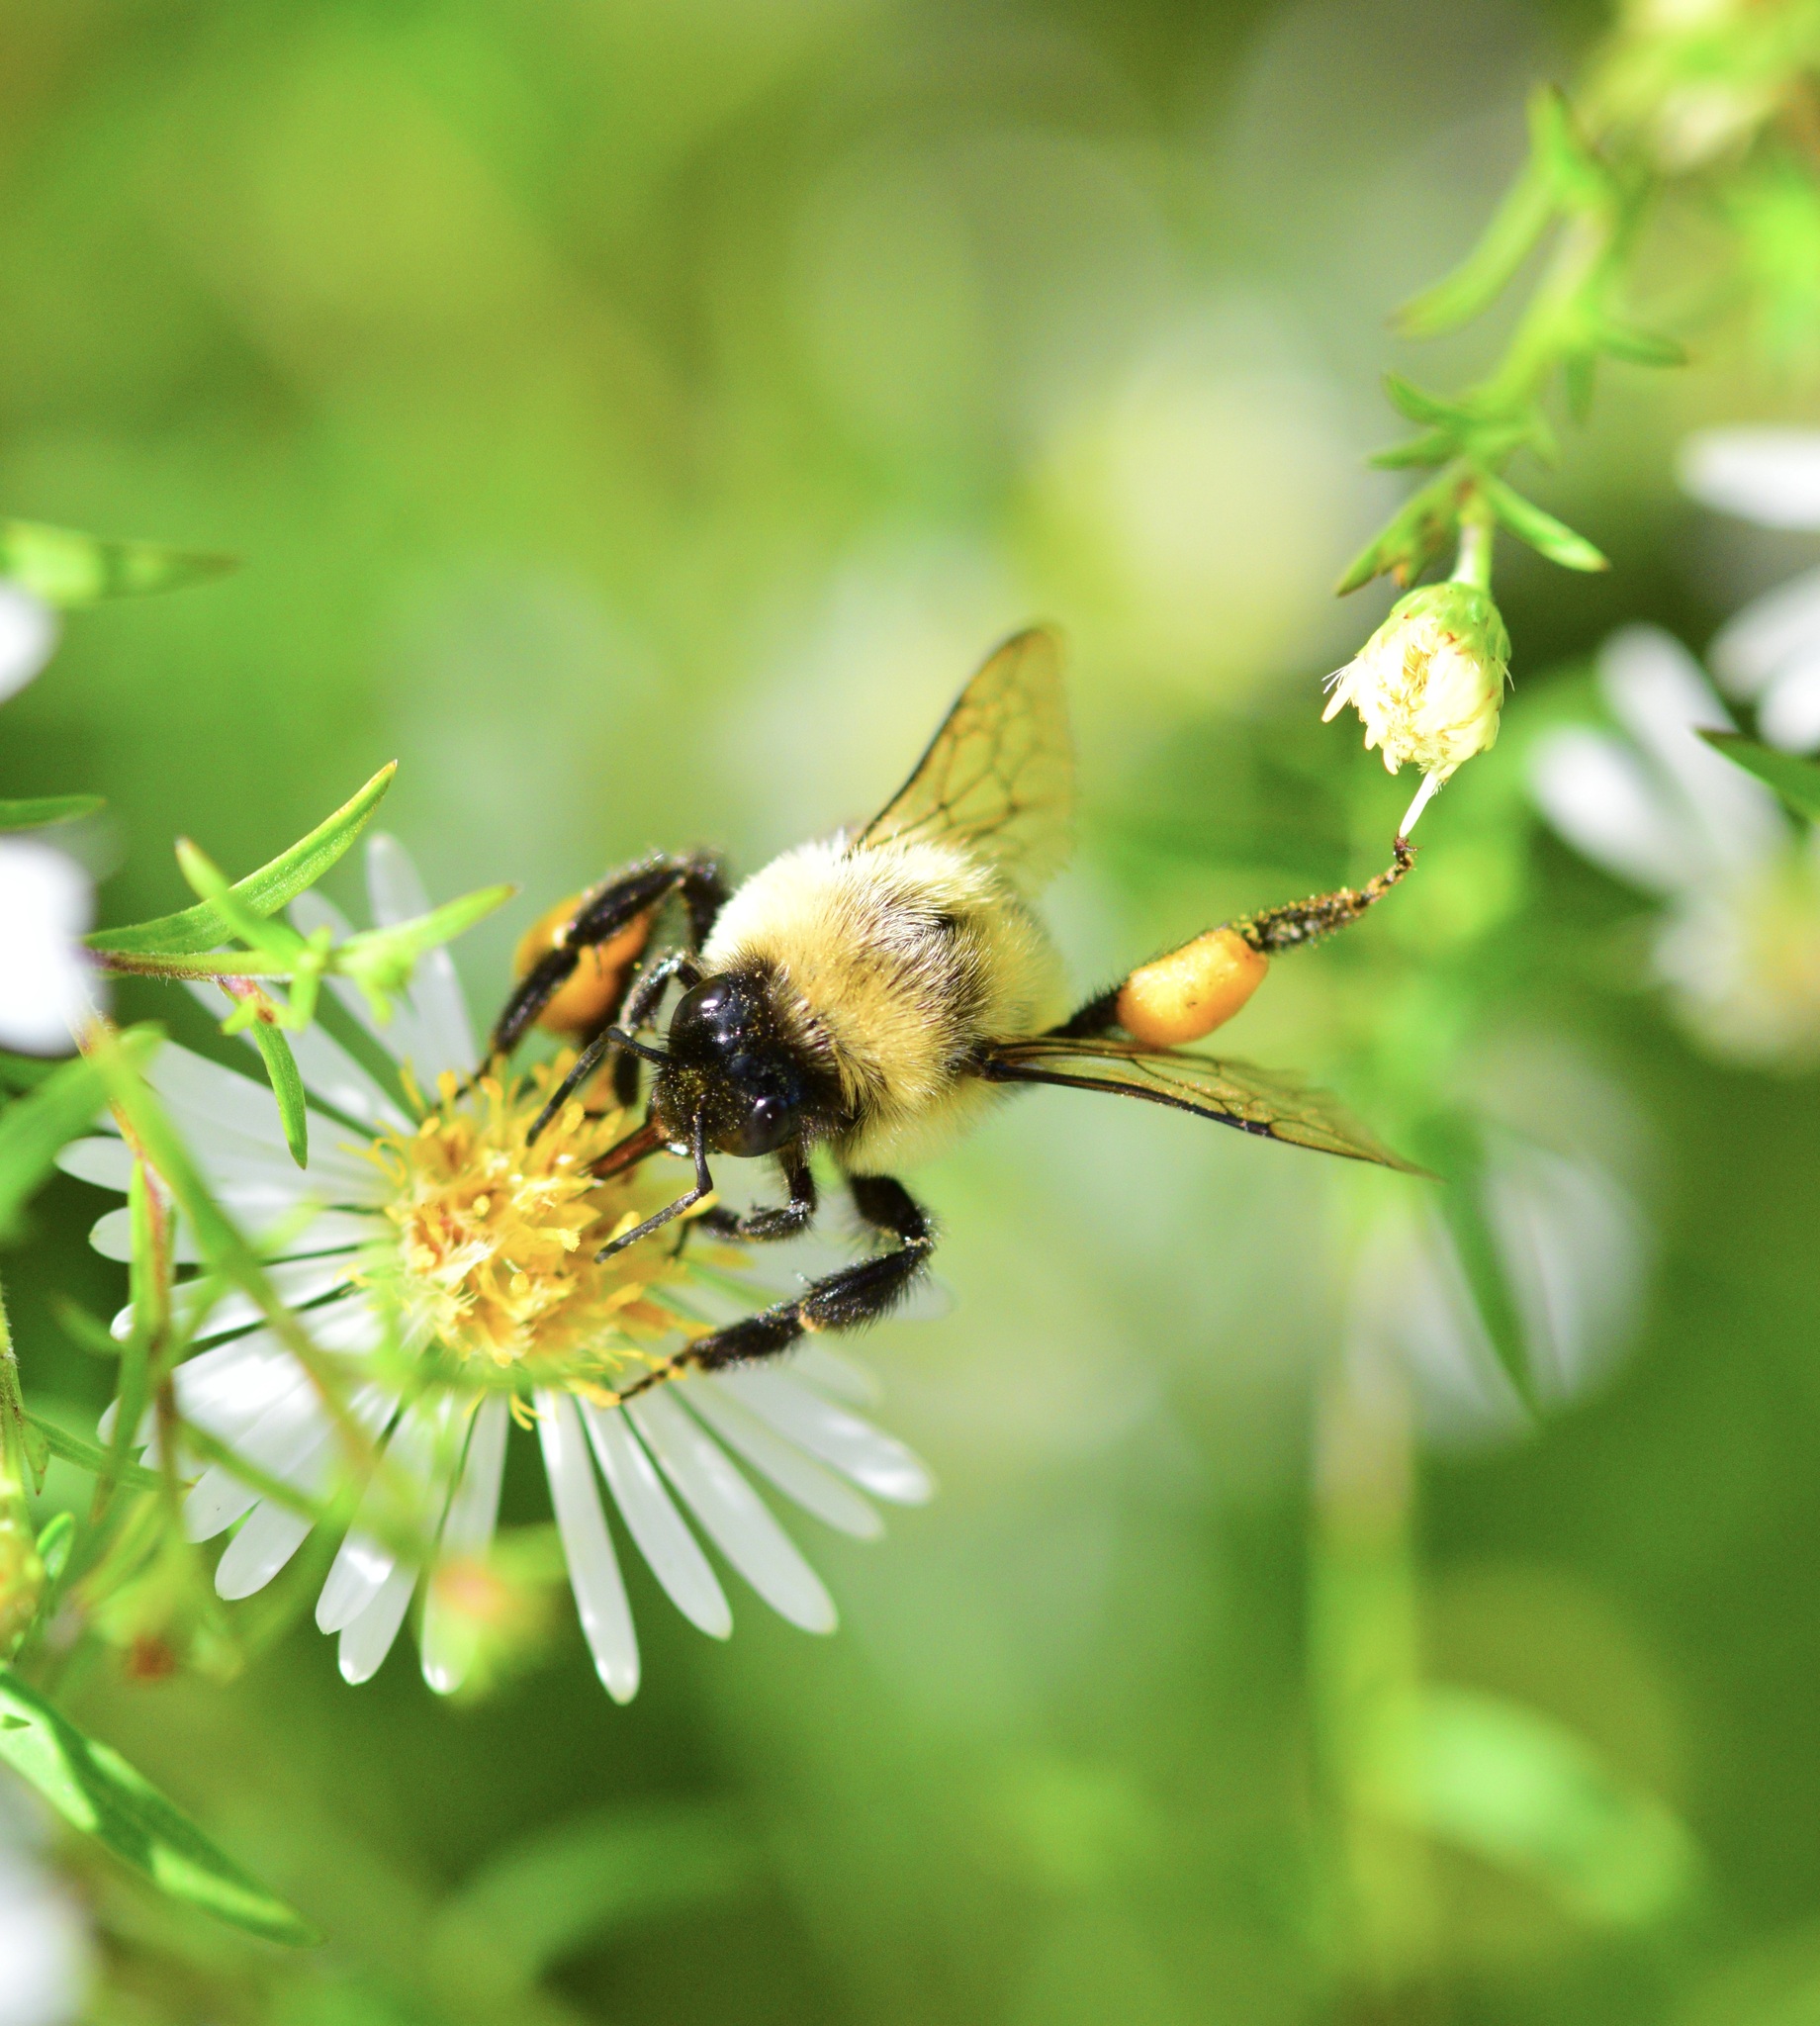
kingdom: Animalia
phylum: Arthropoda
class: Insecta
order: Hymenoptera
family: Apidae
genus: Bombus
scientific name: Bombus impatiens
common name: Common eastern bumble bee
